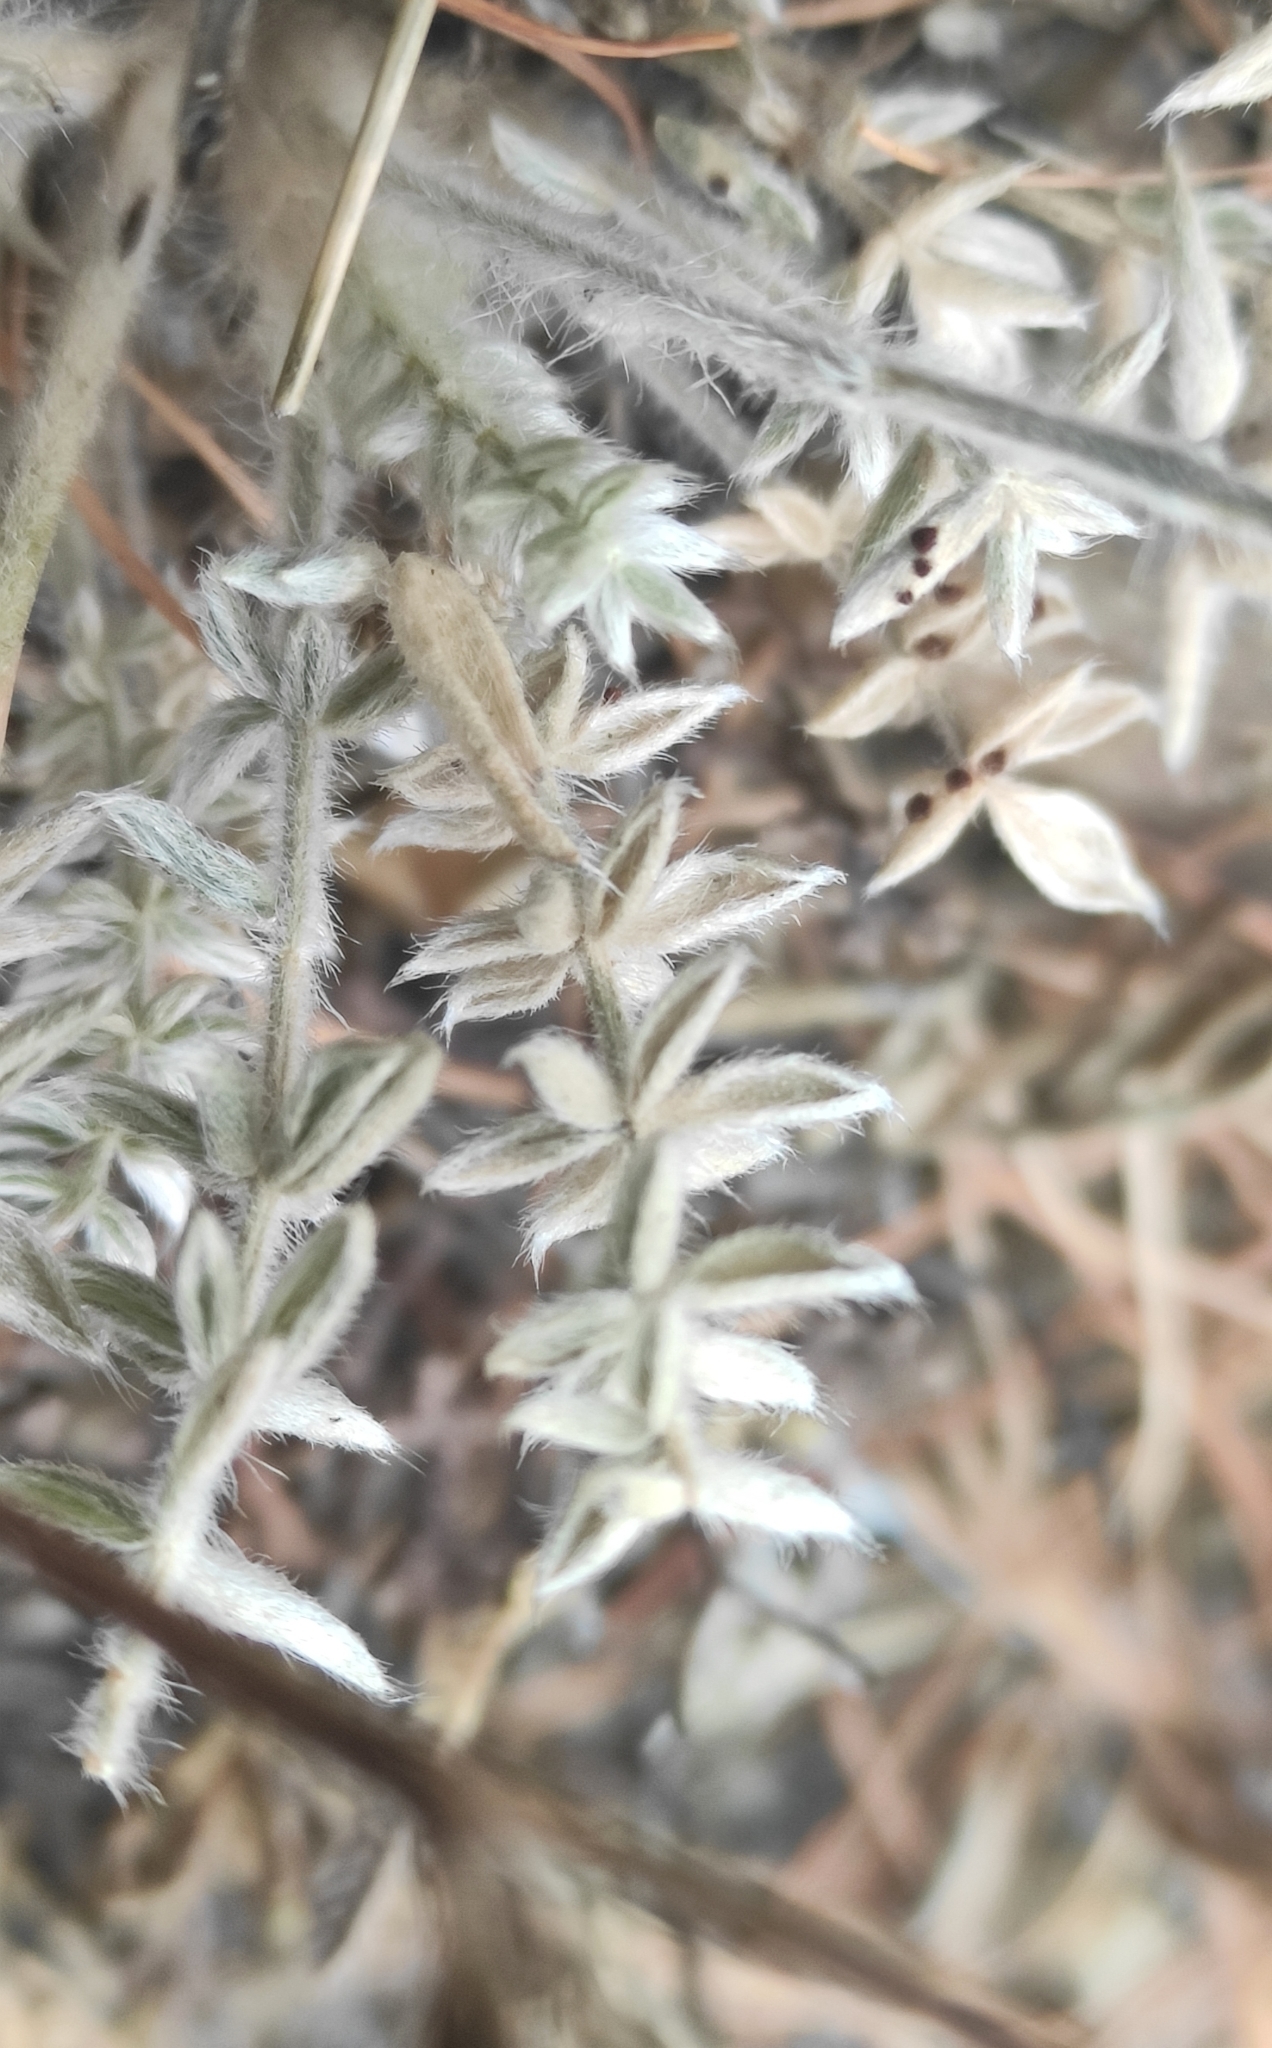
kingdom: Plantae
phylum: Tracheophyta
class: Magnoliopsida
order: Fabales
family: Fabaceae
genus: Oxytropis
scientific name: Oxytropis turczaninovii
